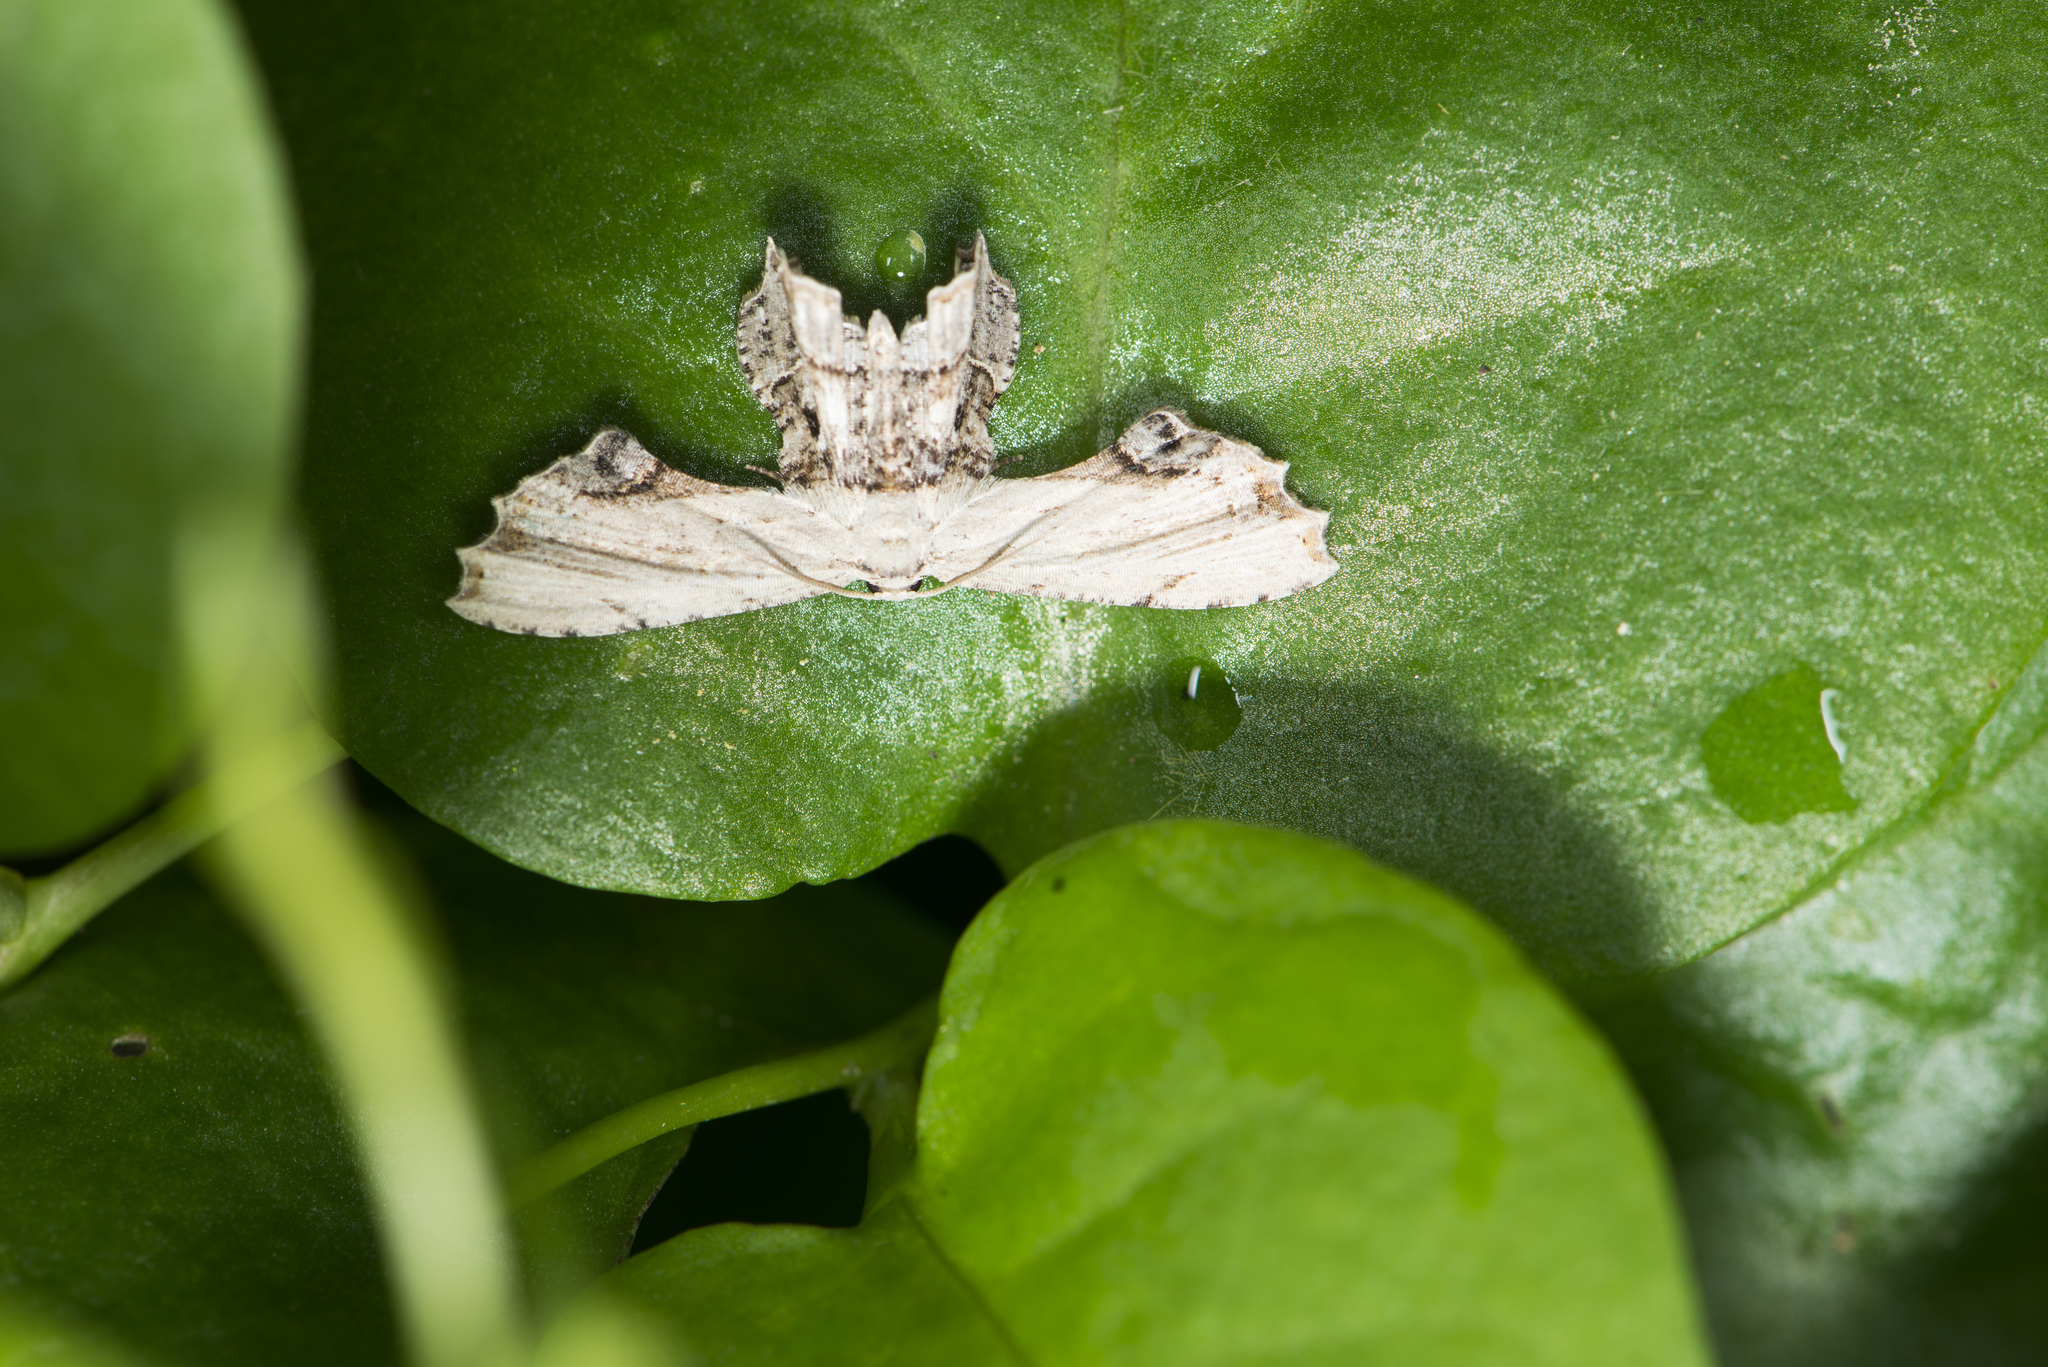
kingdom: Animalia
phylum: Arthropoda
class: Insecta
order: Lepidoptera
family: Uraniidae
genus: Dysaethria
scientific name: Dysaethria erasaria
